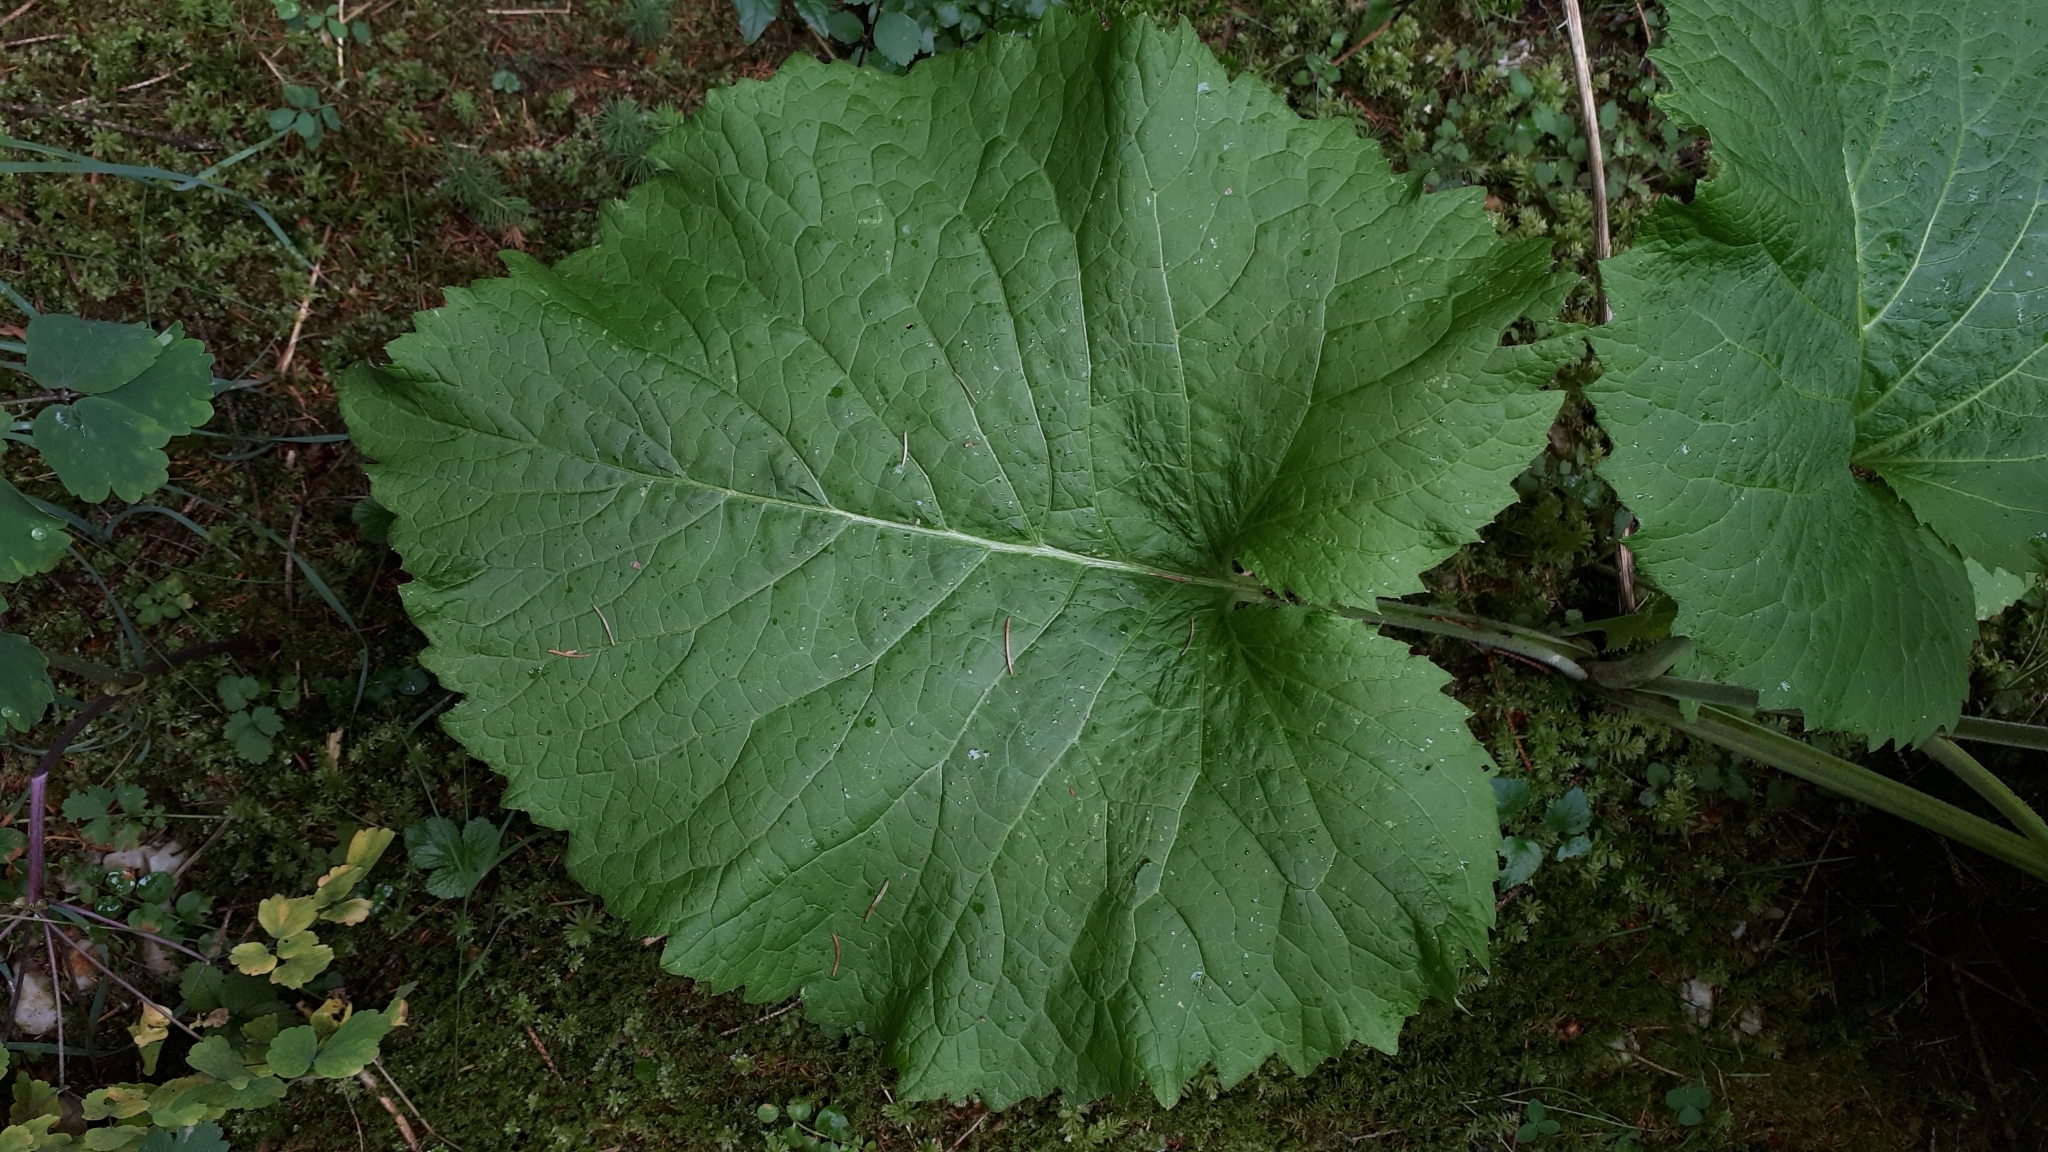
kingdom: Plantae
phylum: Tracheophyta
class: Magnoliopsida
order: Asterales
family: Asteraceae
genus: Telekia
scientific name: Telekia speciosa
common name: Yellow oxeye
